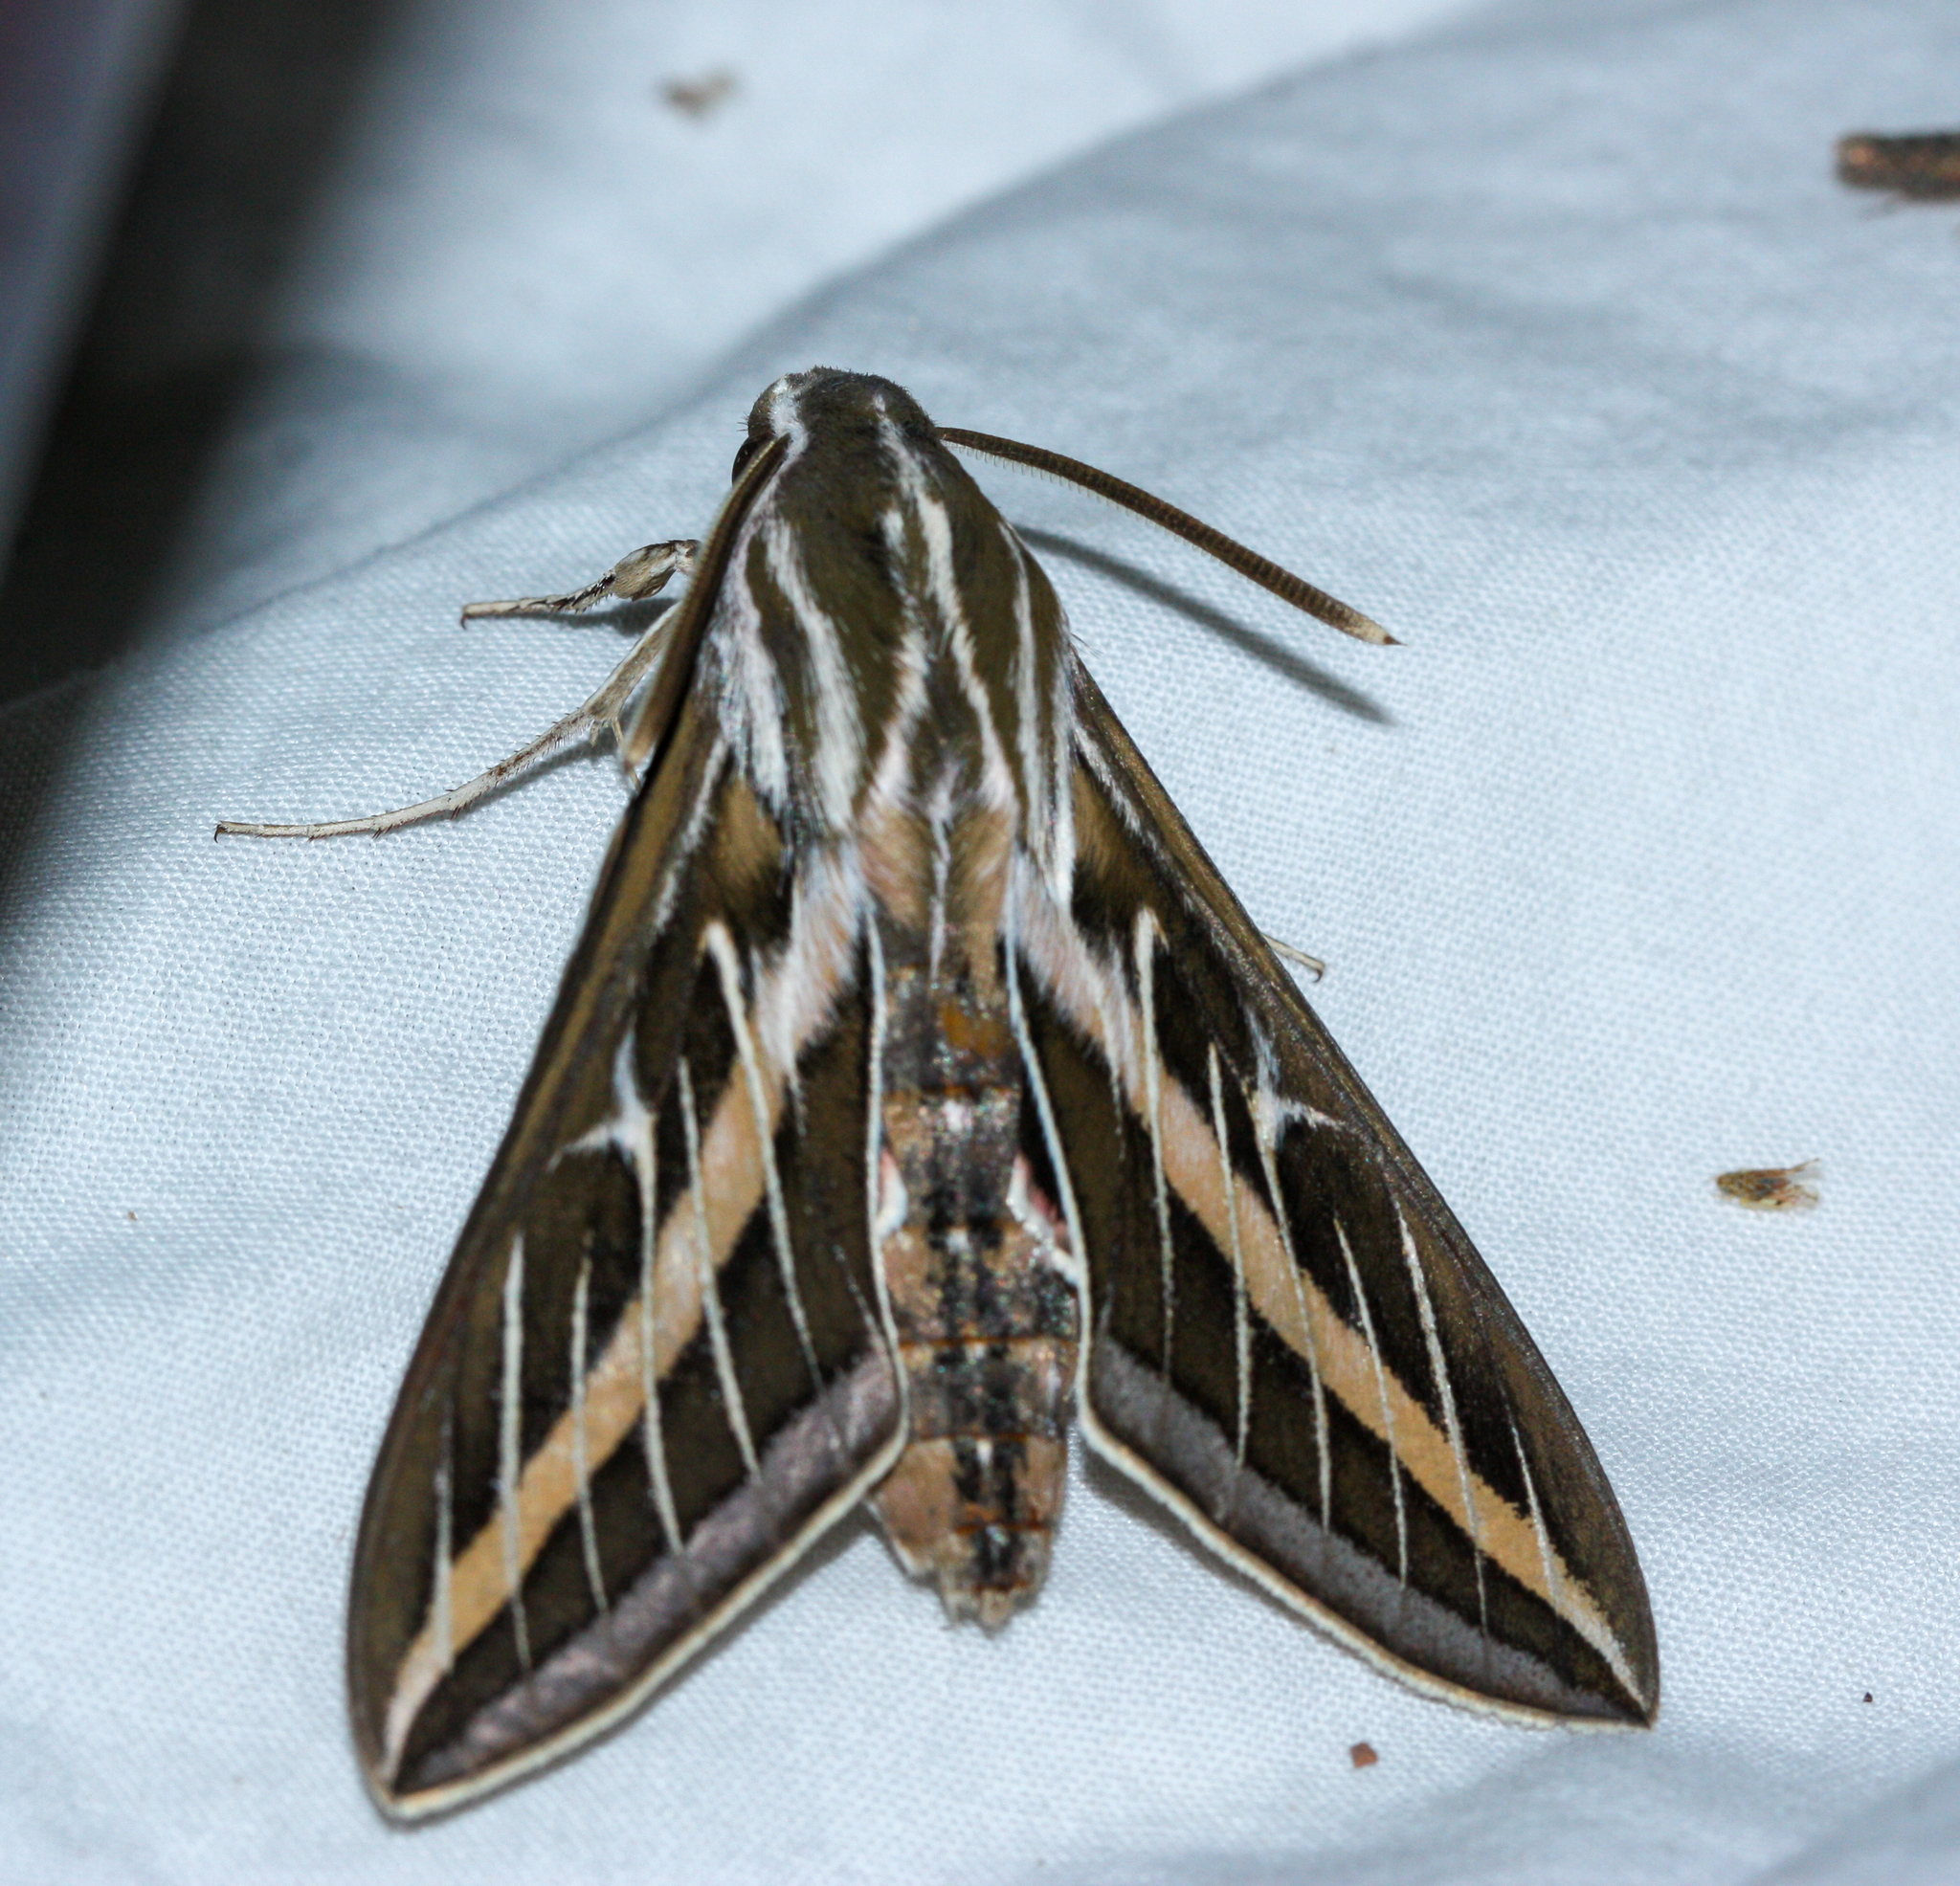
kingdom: Animalia
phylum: Arthropoda
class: Insecta
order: Lepidoptera
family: Sphingidae
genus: Hyles
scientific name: Hyles lineata
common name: White-lined sphinx
